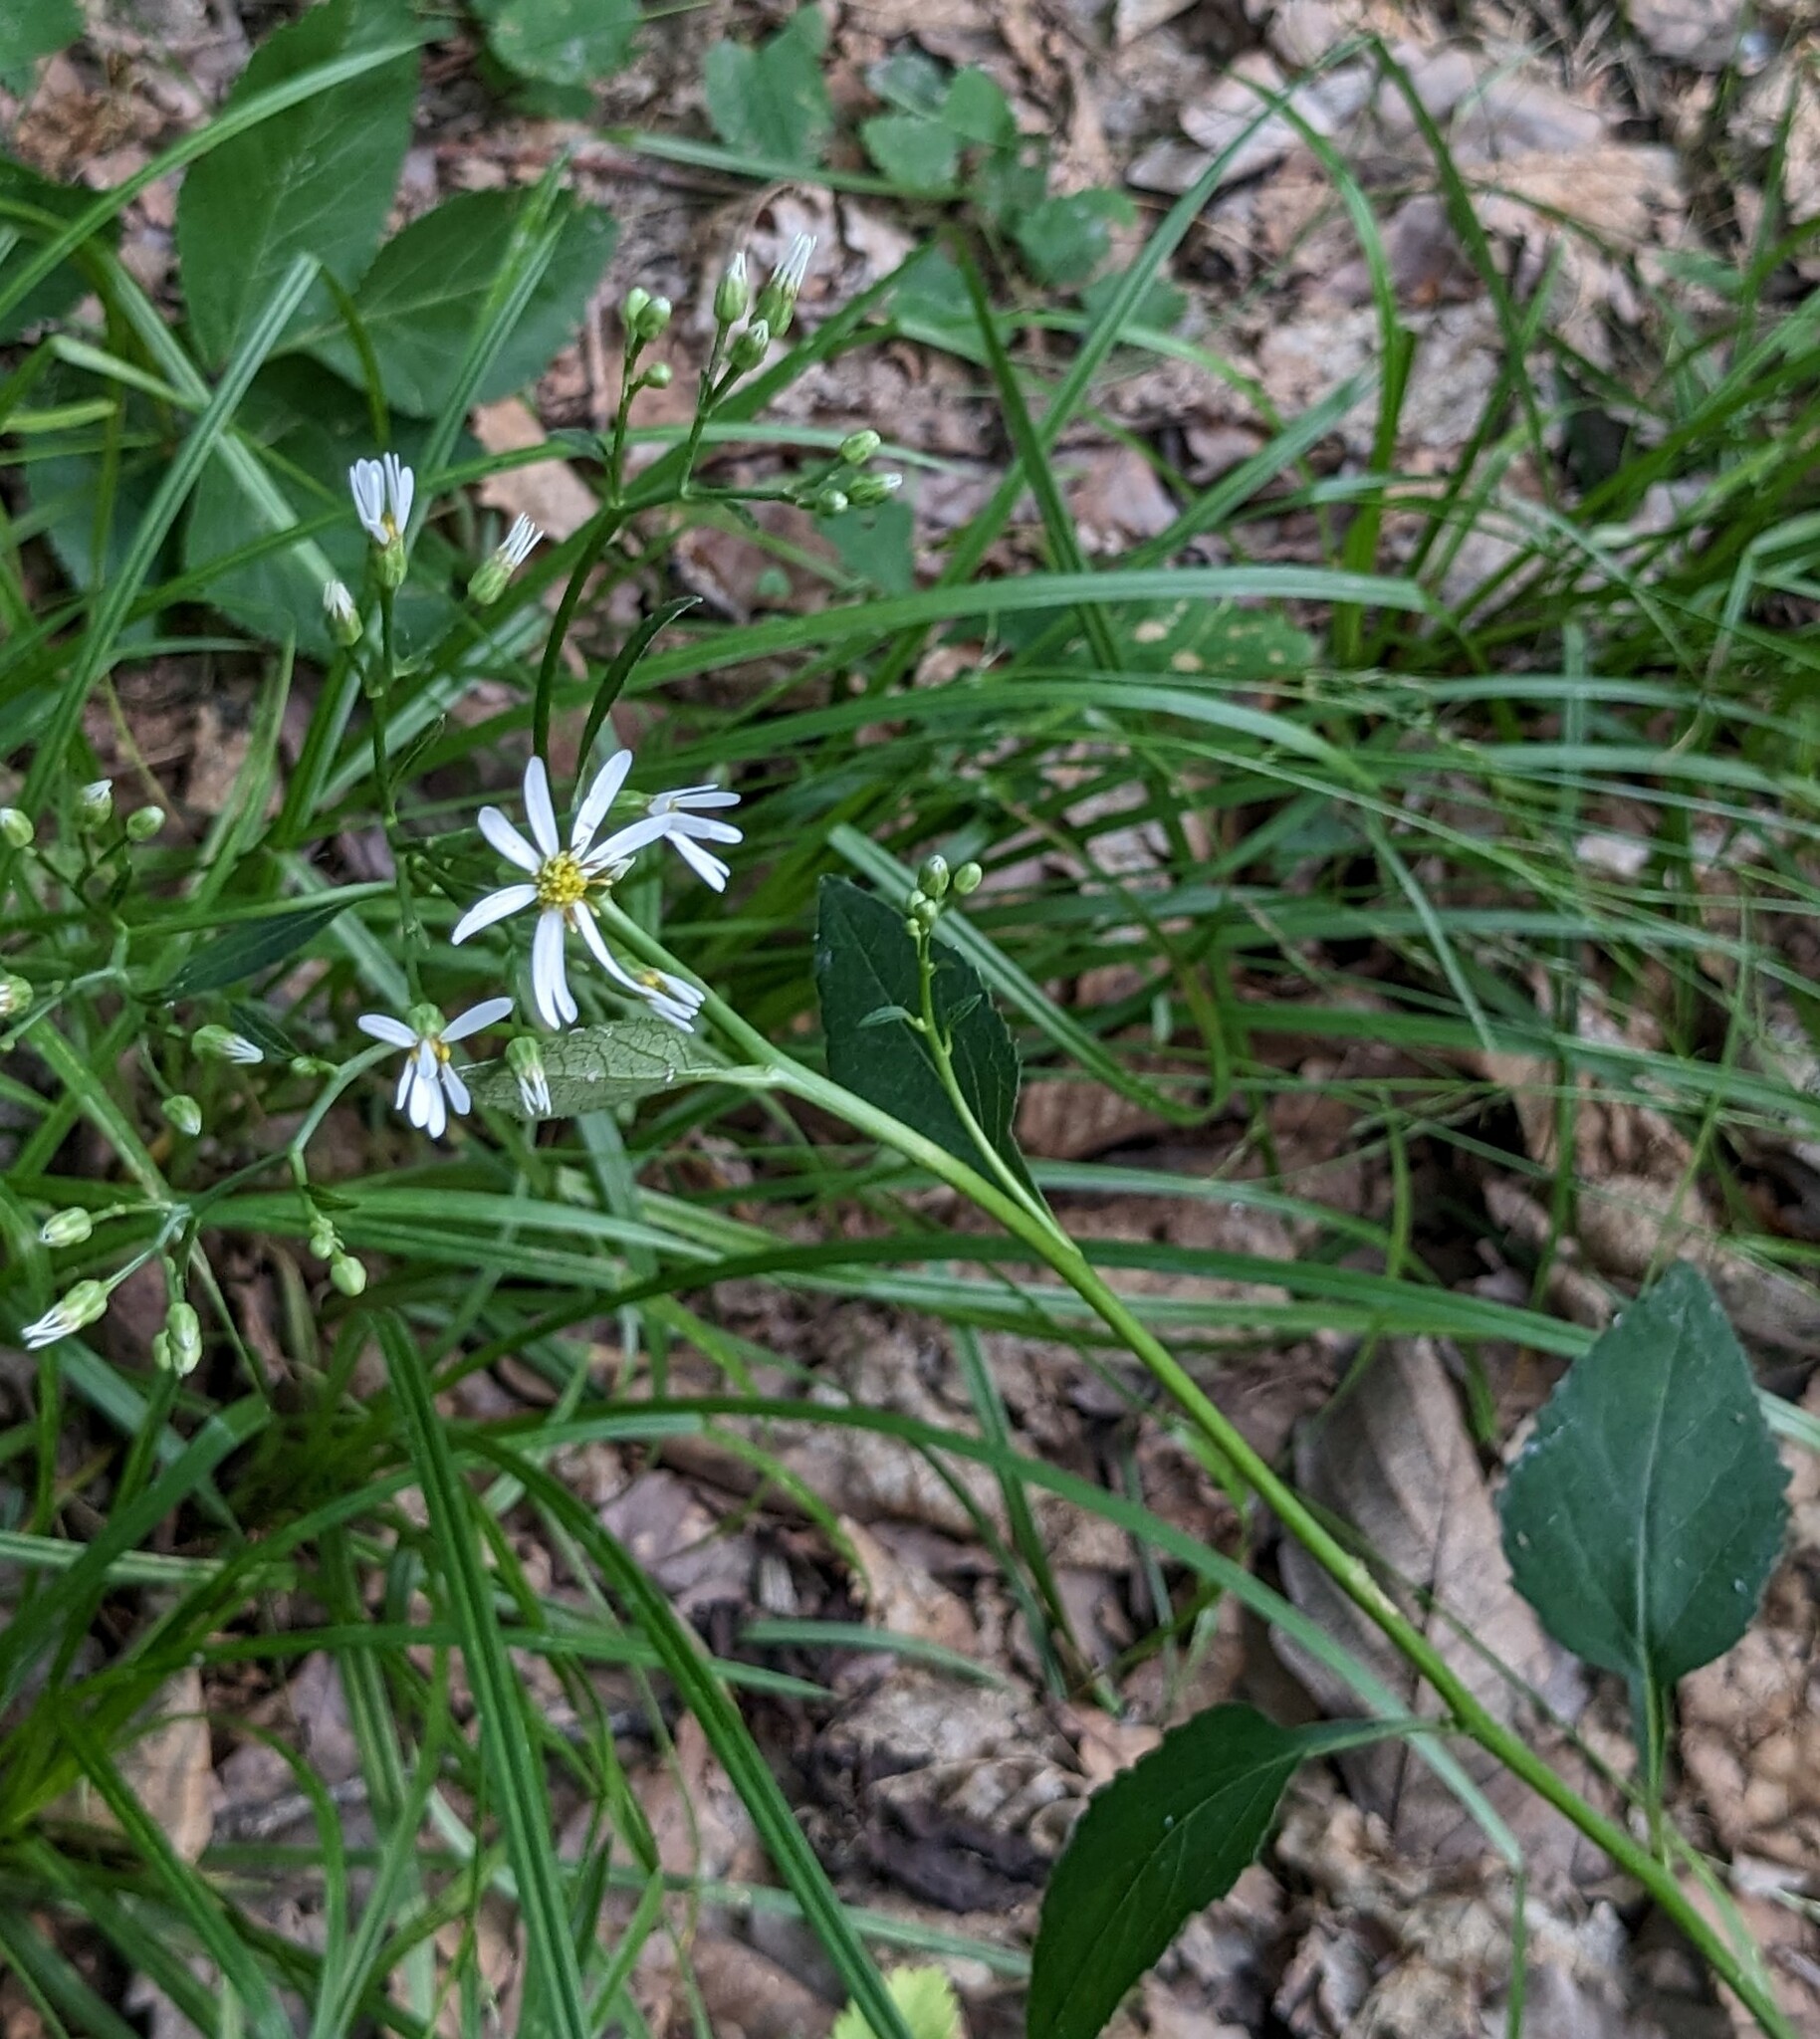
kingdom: Plantae
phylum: Tracheophyta
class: Magnoliopsida
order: Asterales
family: Asteraceae
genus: Aster
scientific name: Aster scaber
